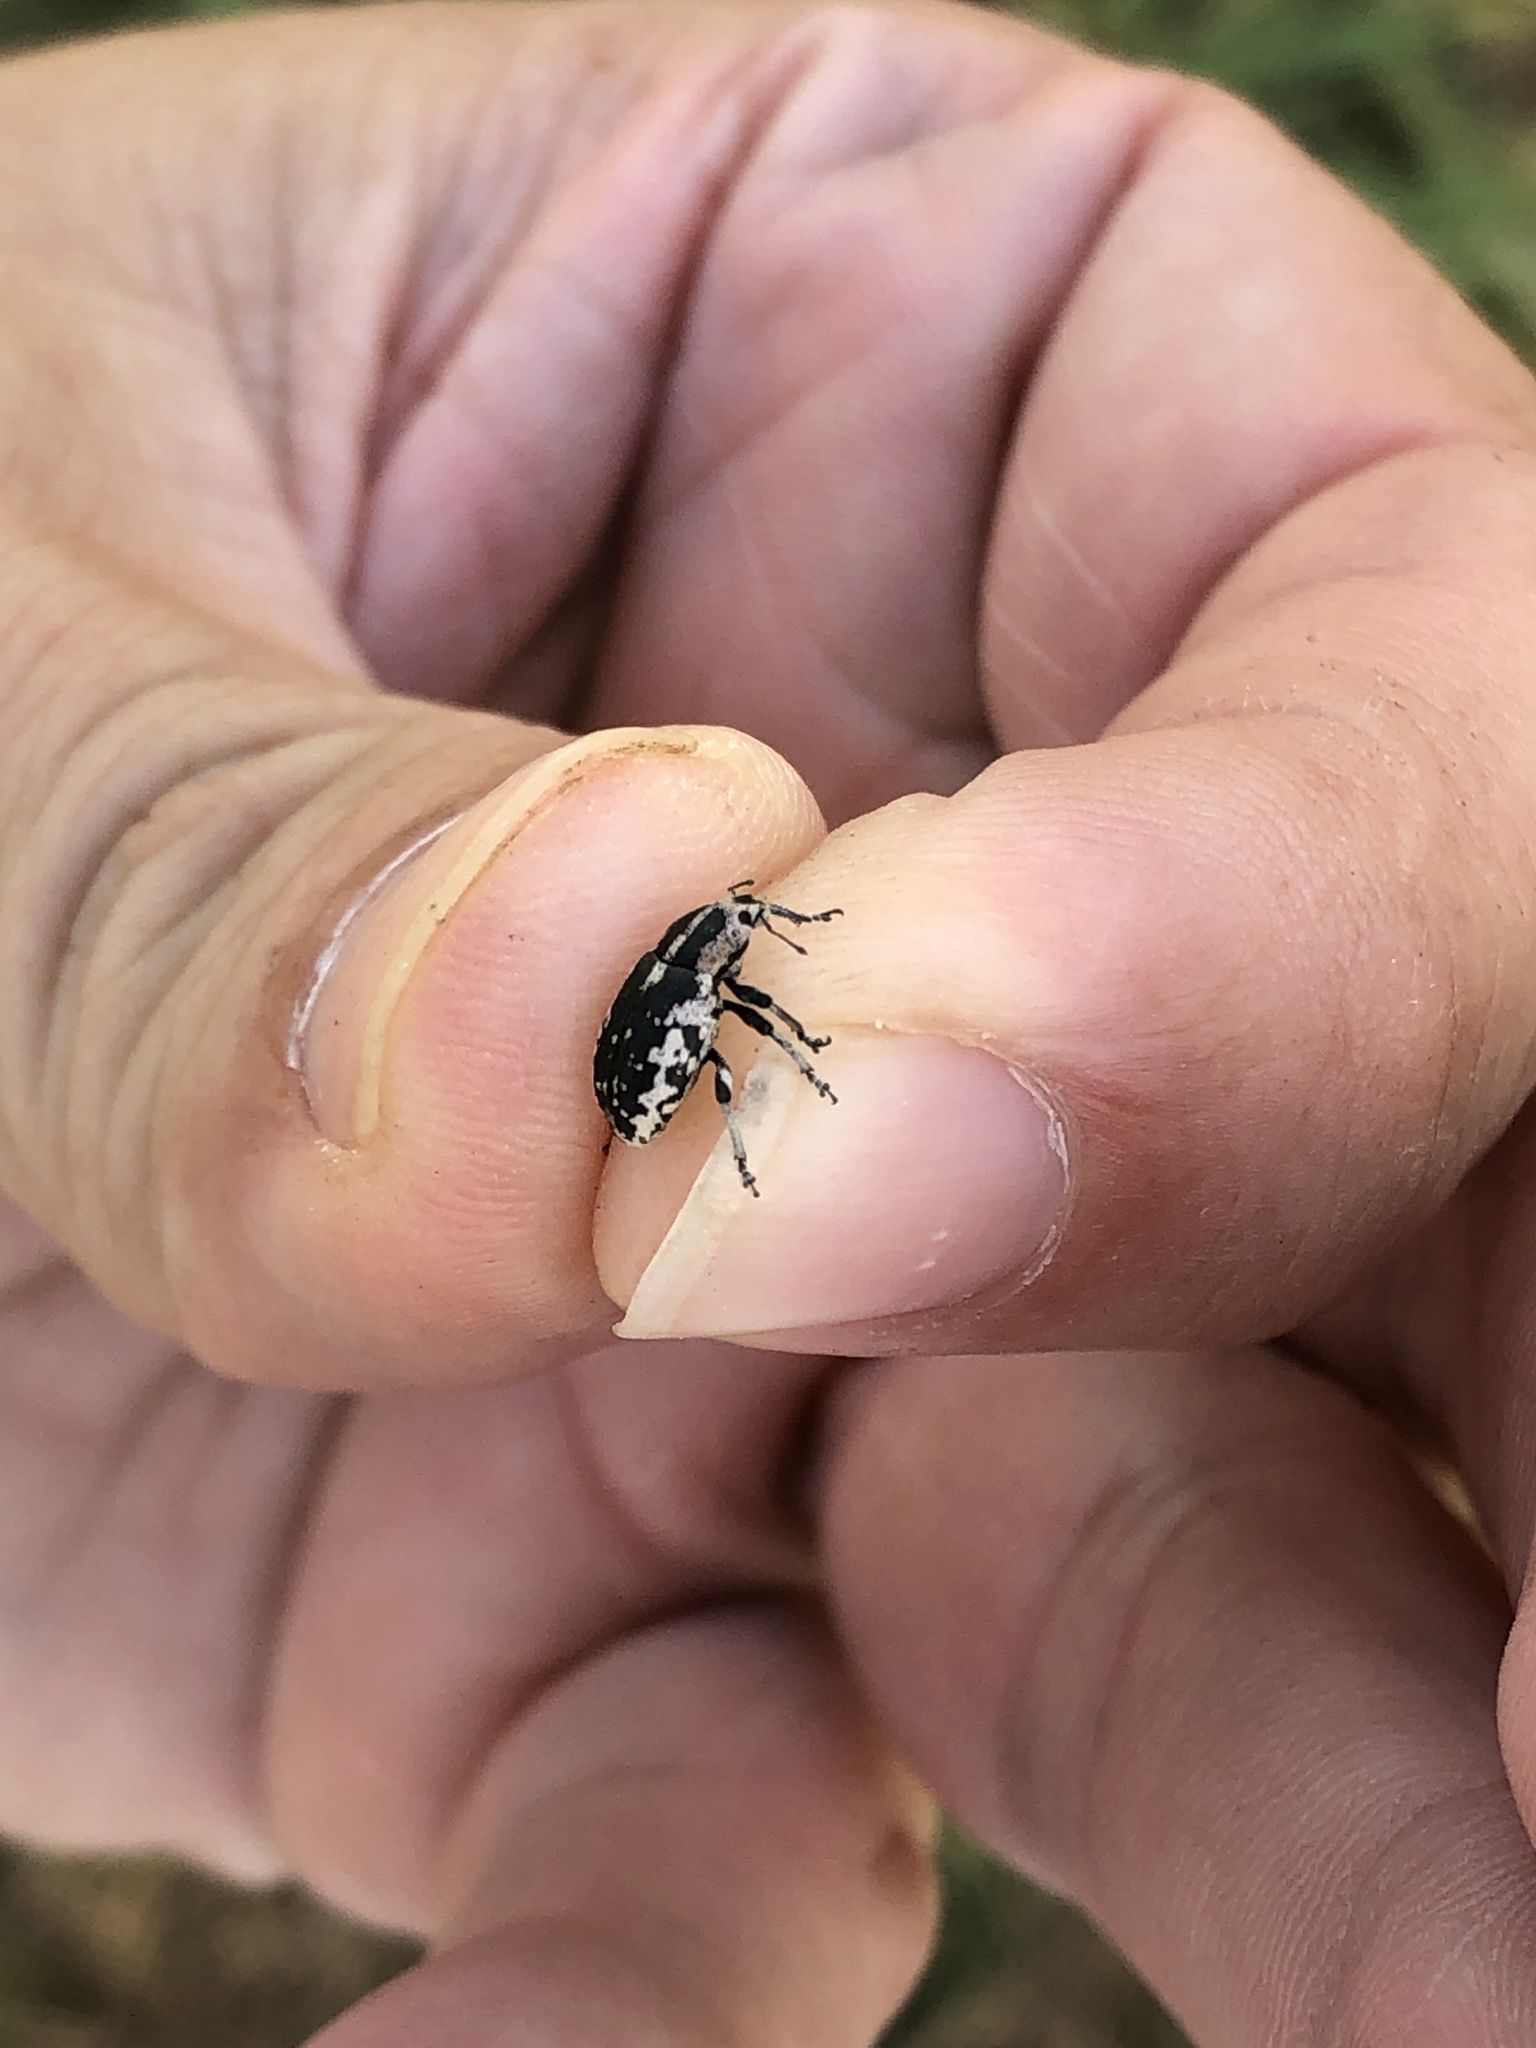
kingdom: Animalia
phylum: Arthropoda
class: Insecta
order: Coleoptera
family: Curculionidae
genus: Eudiagogus
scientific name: Eudiagogus rosenschoeldi
